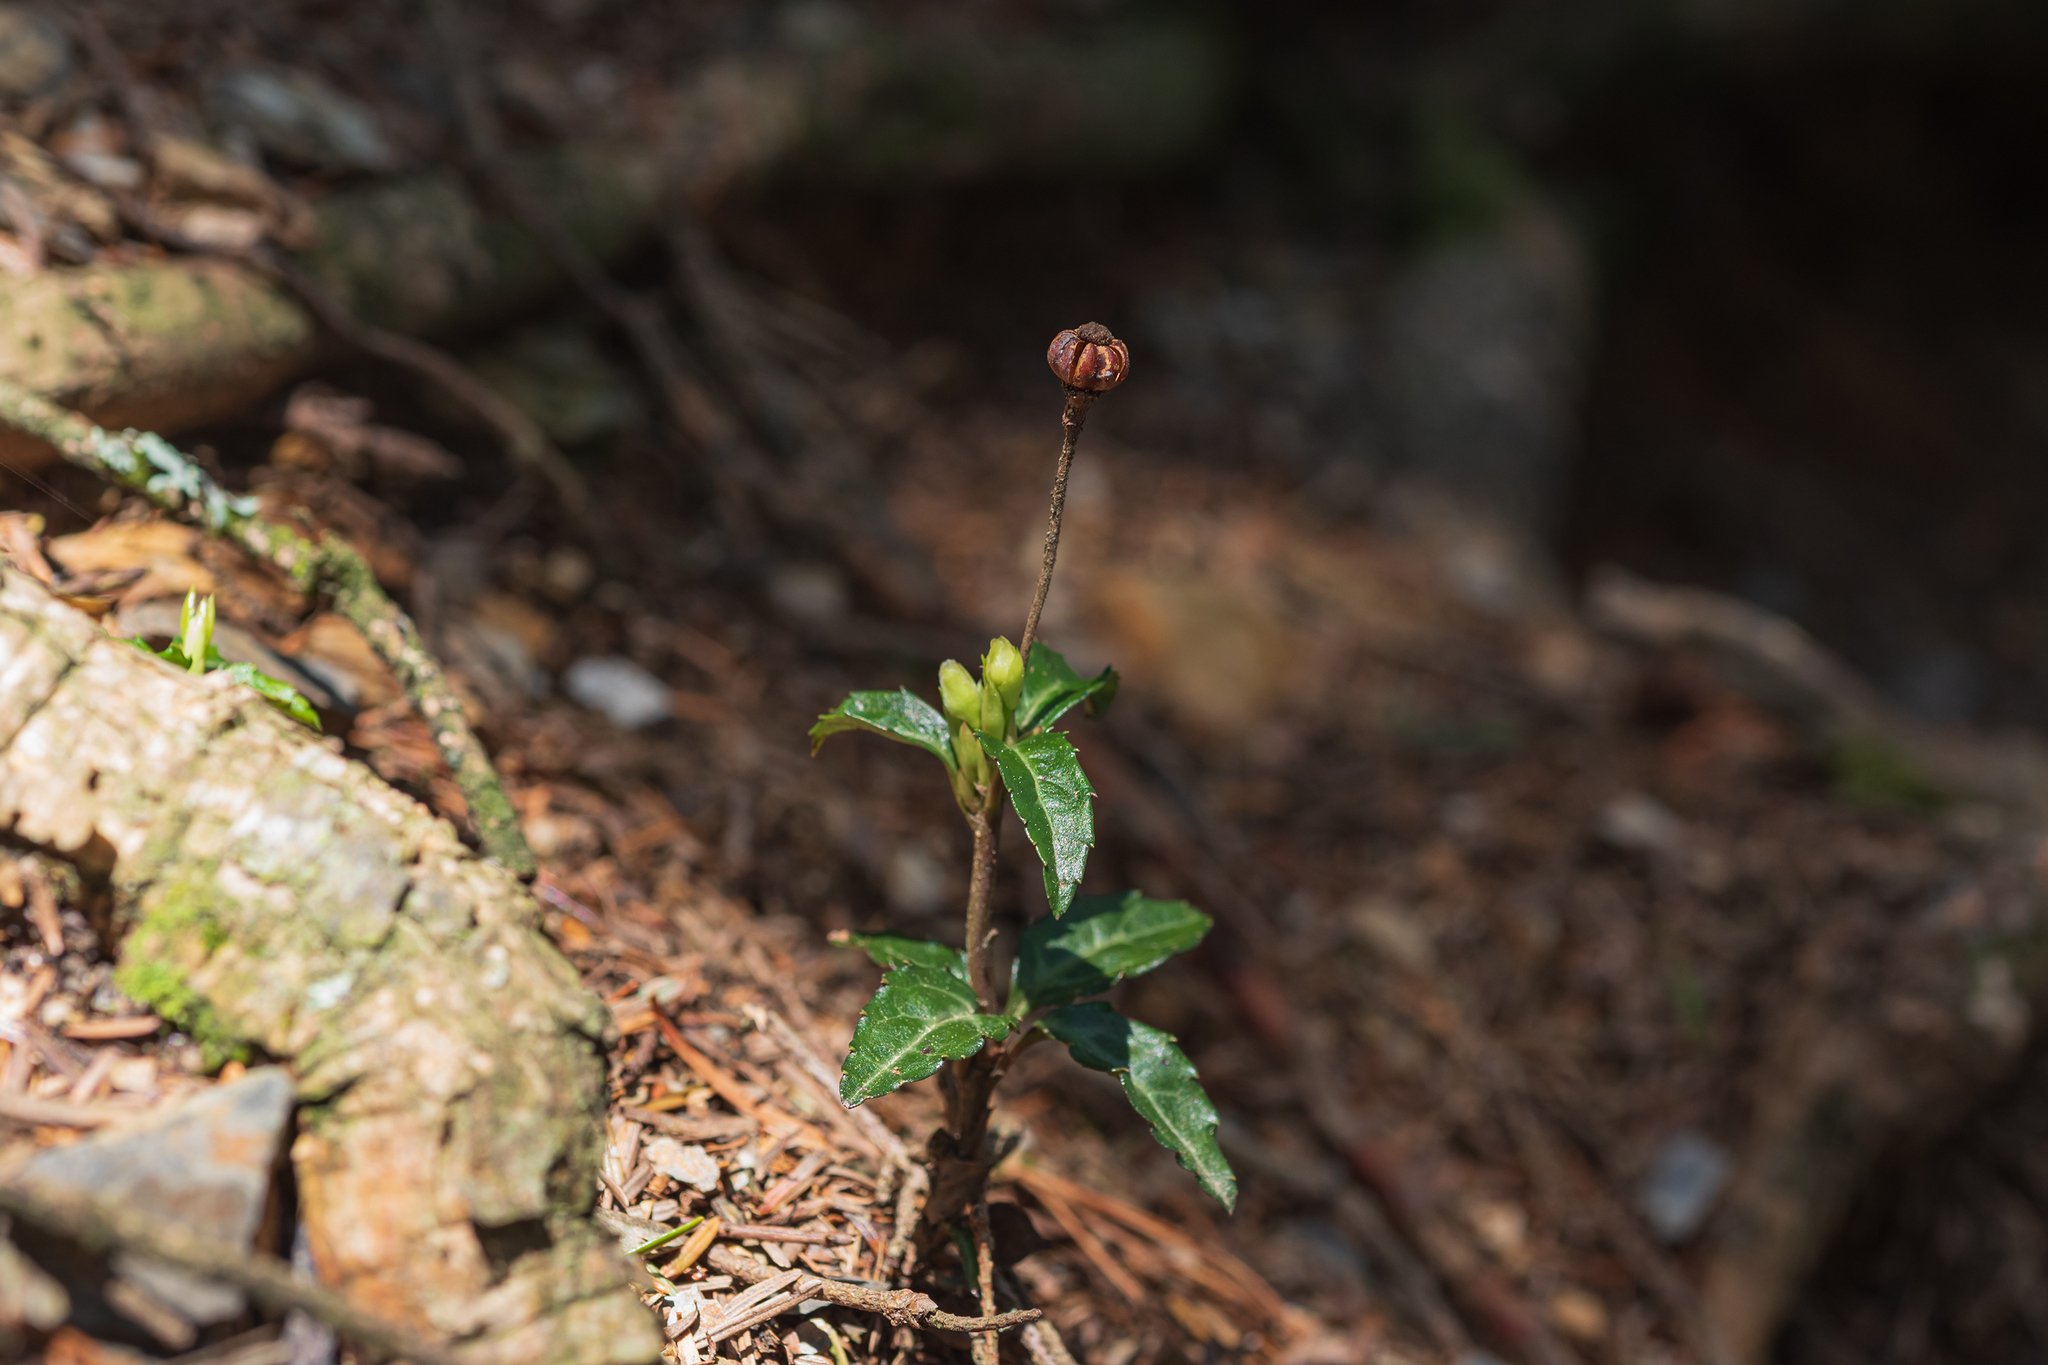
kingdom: Plantae
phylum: Tracheophyta
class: Magnoliopsida
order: Ericales
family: Ericaceae
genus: Chimaphila
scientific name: Chimaphila japonica
